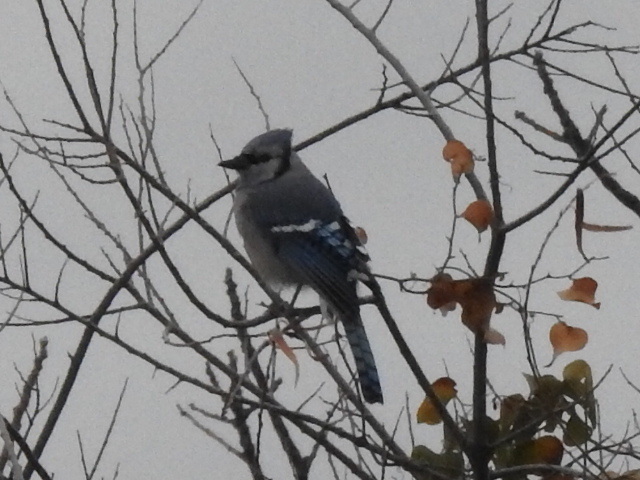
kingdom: Animalia
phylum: Chordata
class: Aves
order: Passeriformes
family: Corvidae
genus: Cyanocitta
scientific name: Cyanocitta cristata
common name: Blue jay
